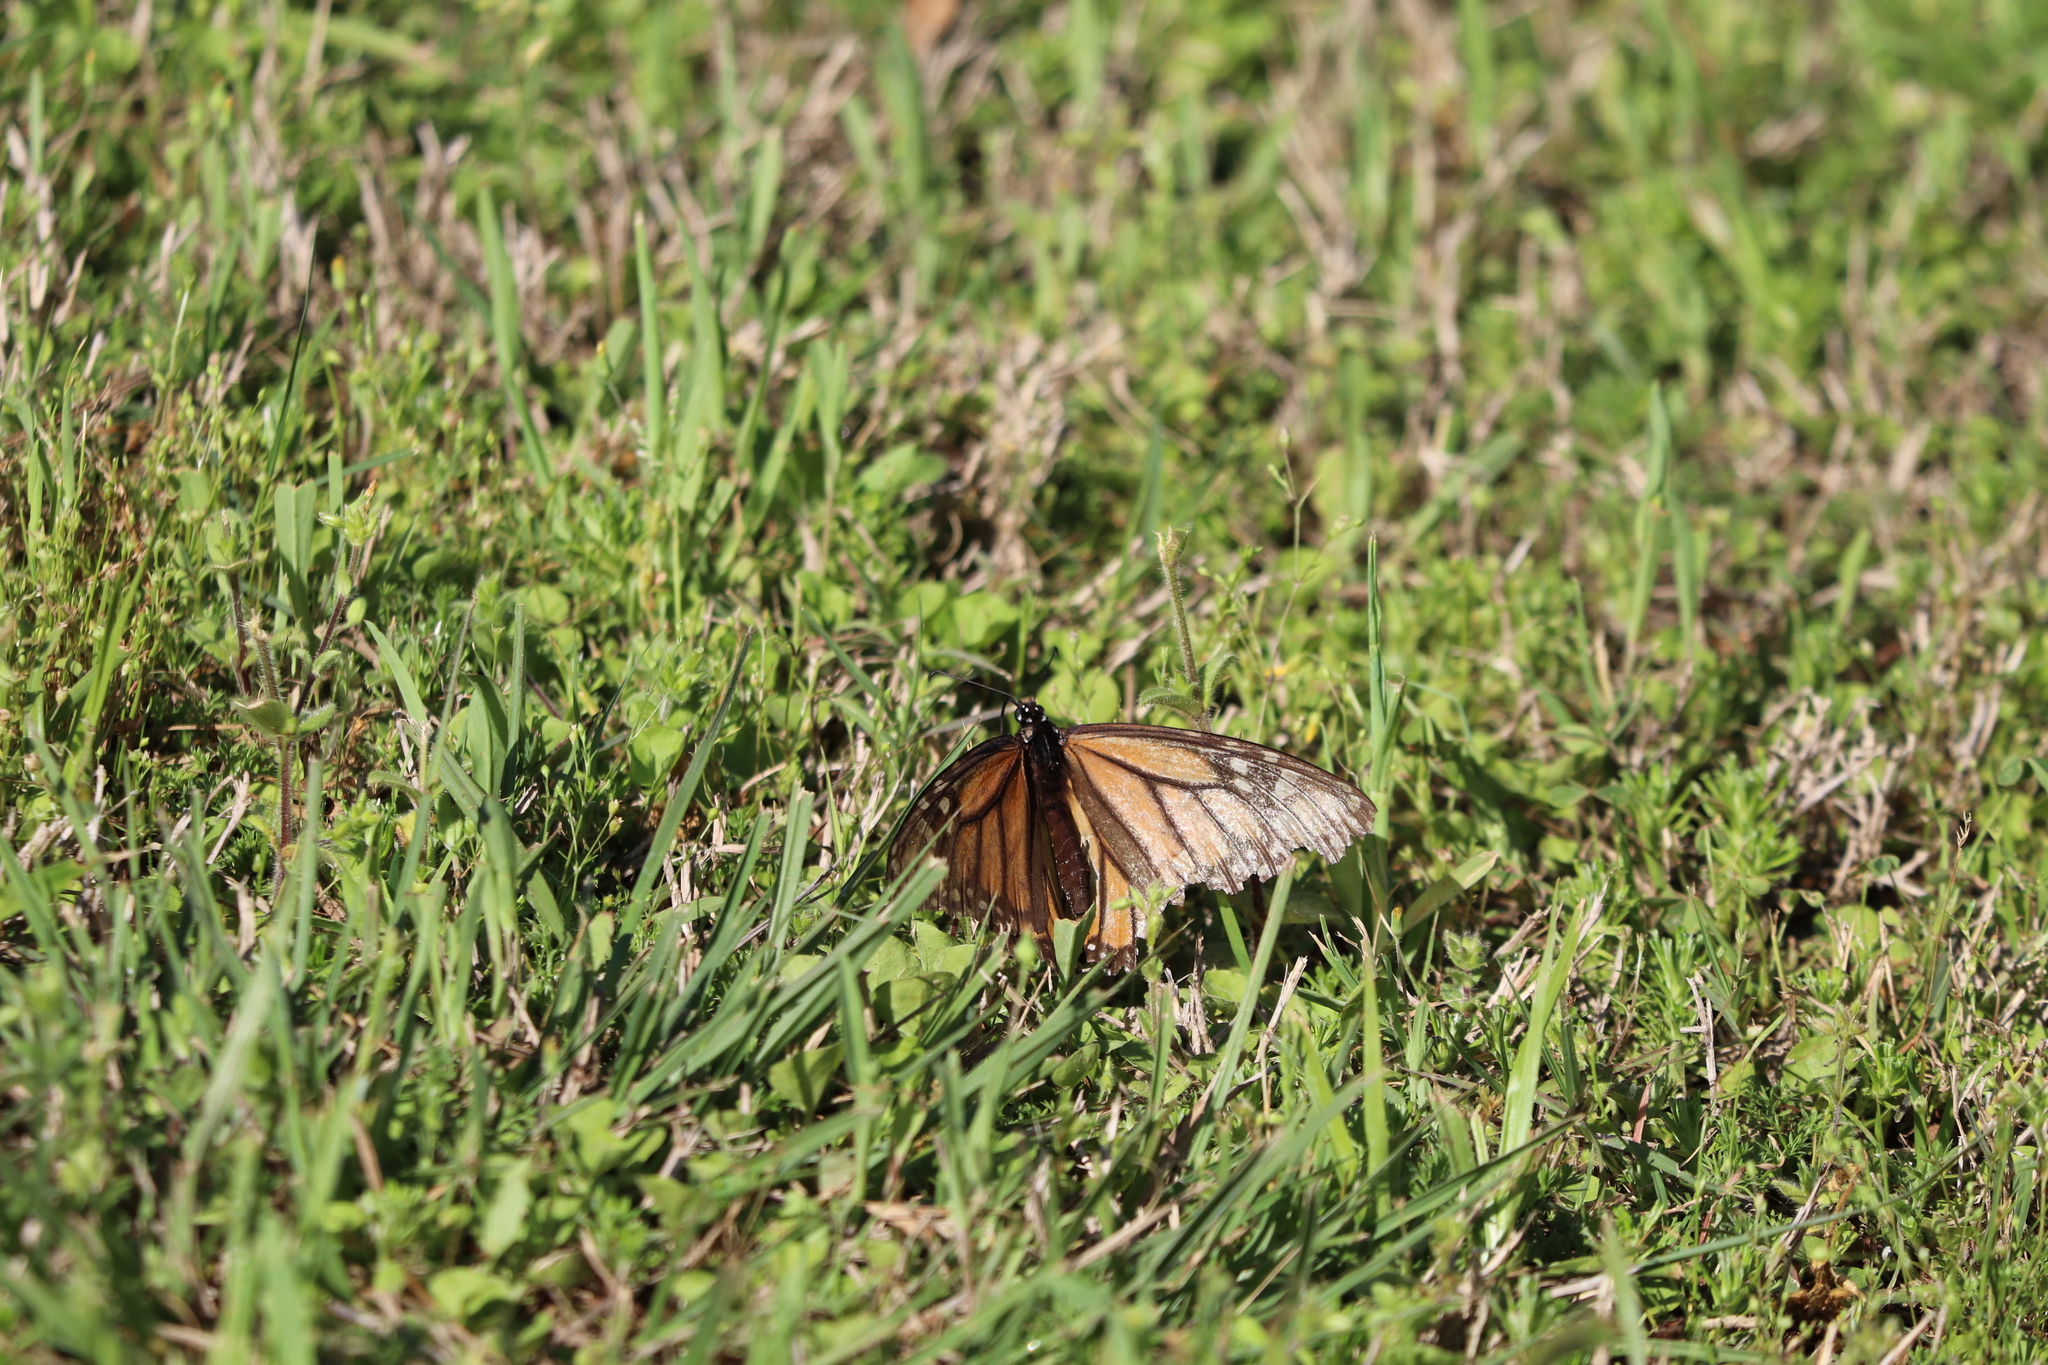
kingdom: Animalia
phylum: Arthropoda
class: Insecta
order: Lepidoptera
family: Nymphalidae
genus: Danaus
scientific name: Danaus plexippus
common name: Monarch
